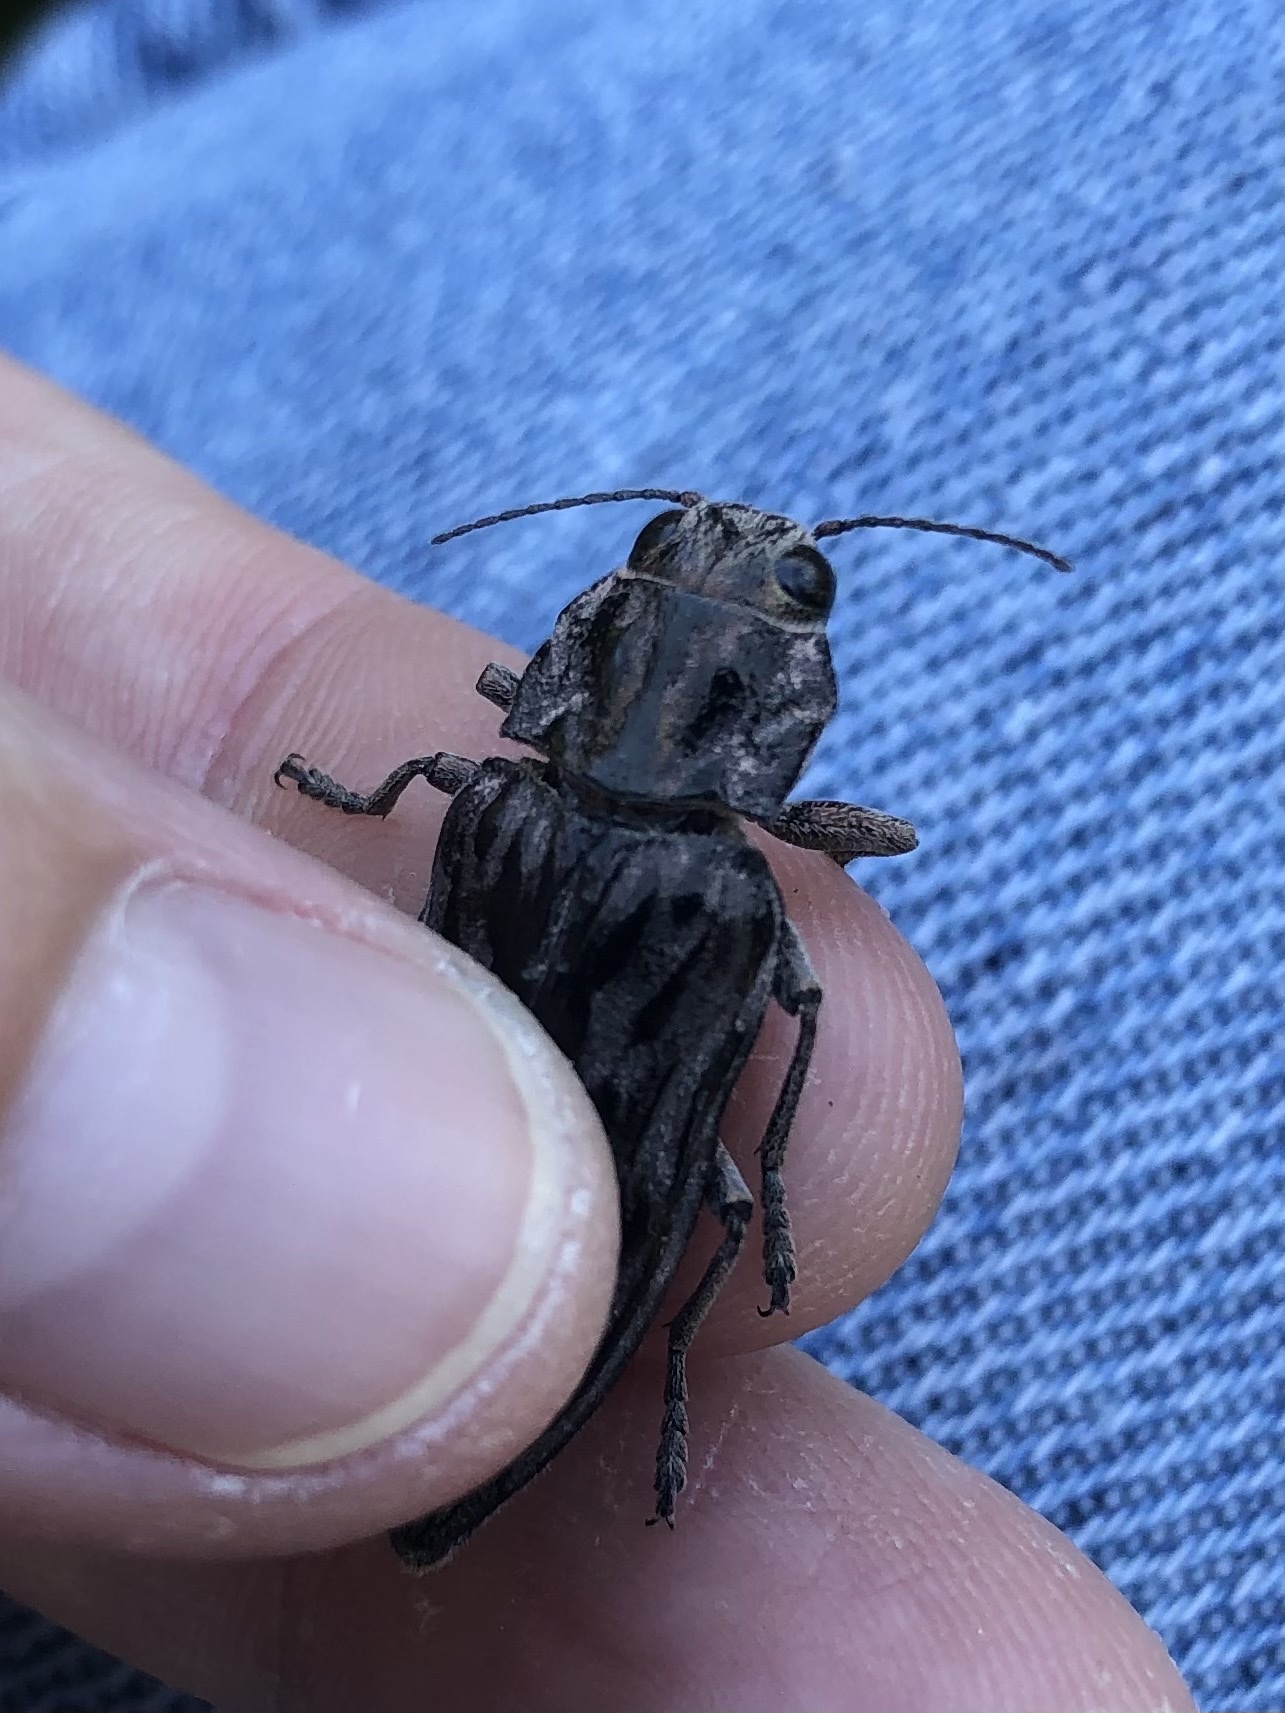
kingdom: Animalia
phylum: Arthropoda
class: Insecta
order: Coleoptera
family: Buprestidae
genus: Chalcophora
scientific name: Chalcophora angulicollis
